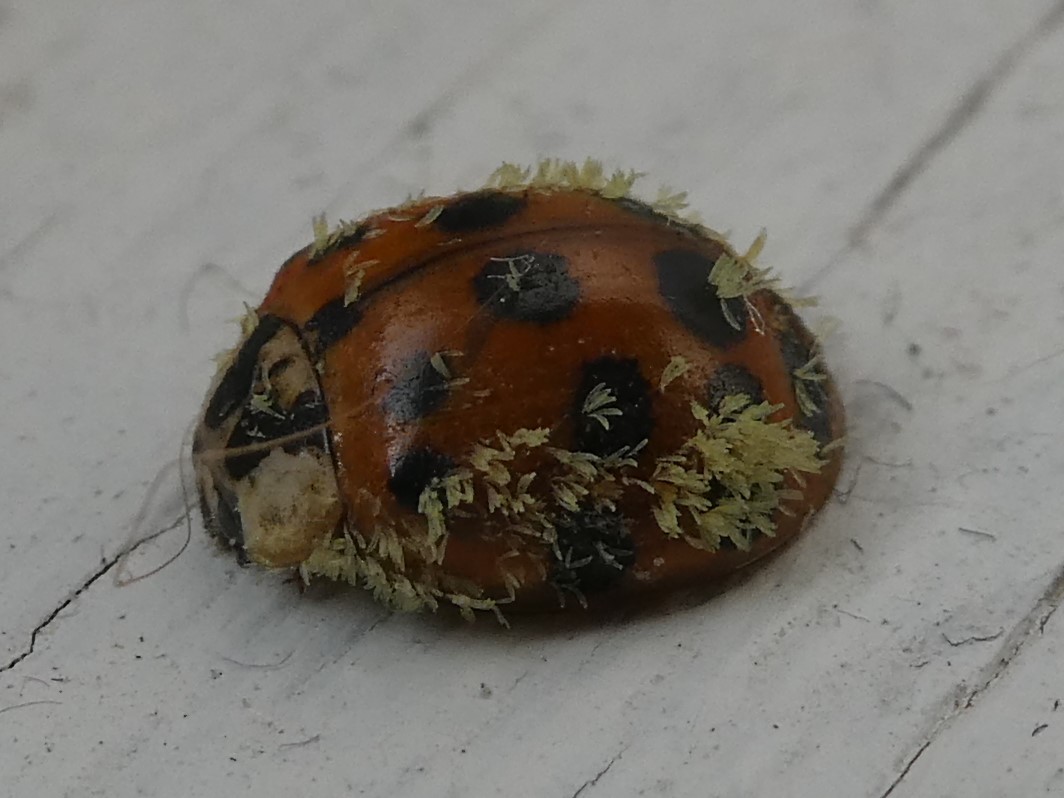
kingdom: Animalia
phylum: Arthropoda
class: Insecta
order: Coleoptera
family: Coccinellidae
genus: Harmonia
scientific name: Harmonia axyridis
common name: Harlequin ladybird
